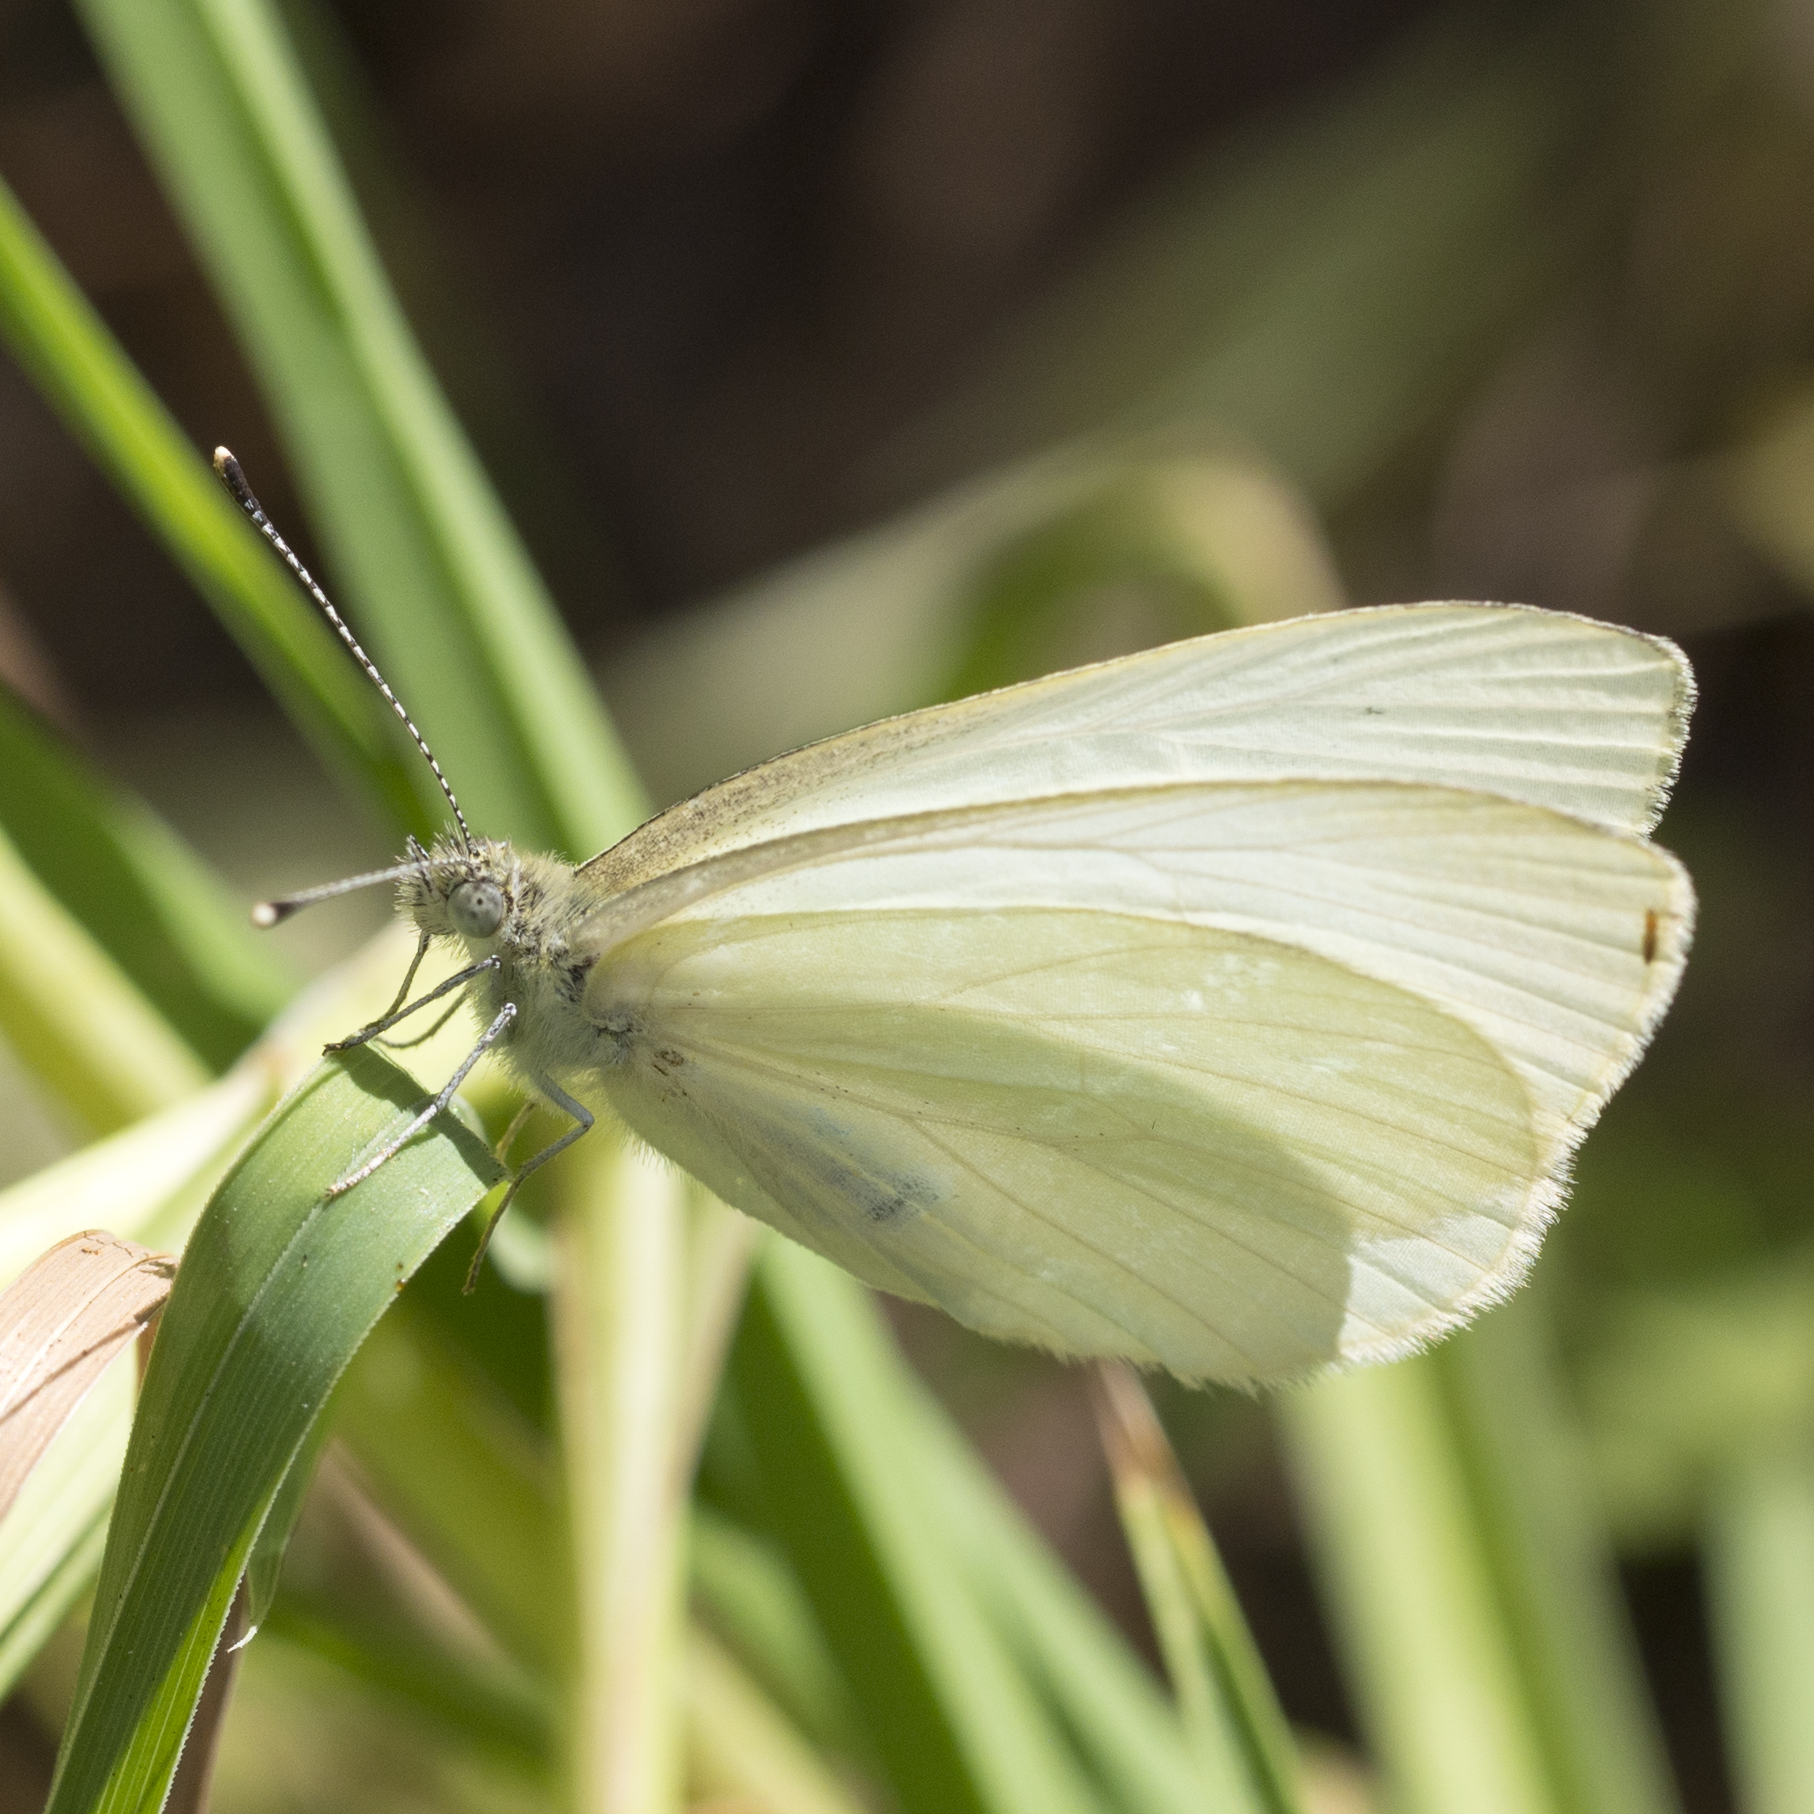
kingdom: Animalia
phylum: Arthropoda
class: Insecta
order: Lepidoptera
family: Pieridae
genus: Pieris
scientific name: Pieris marginalis
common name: Margined white
